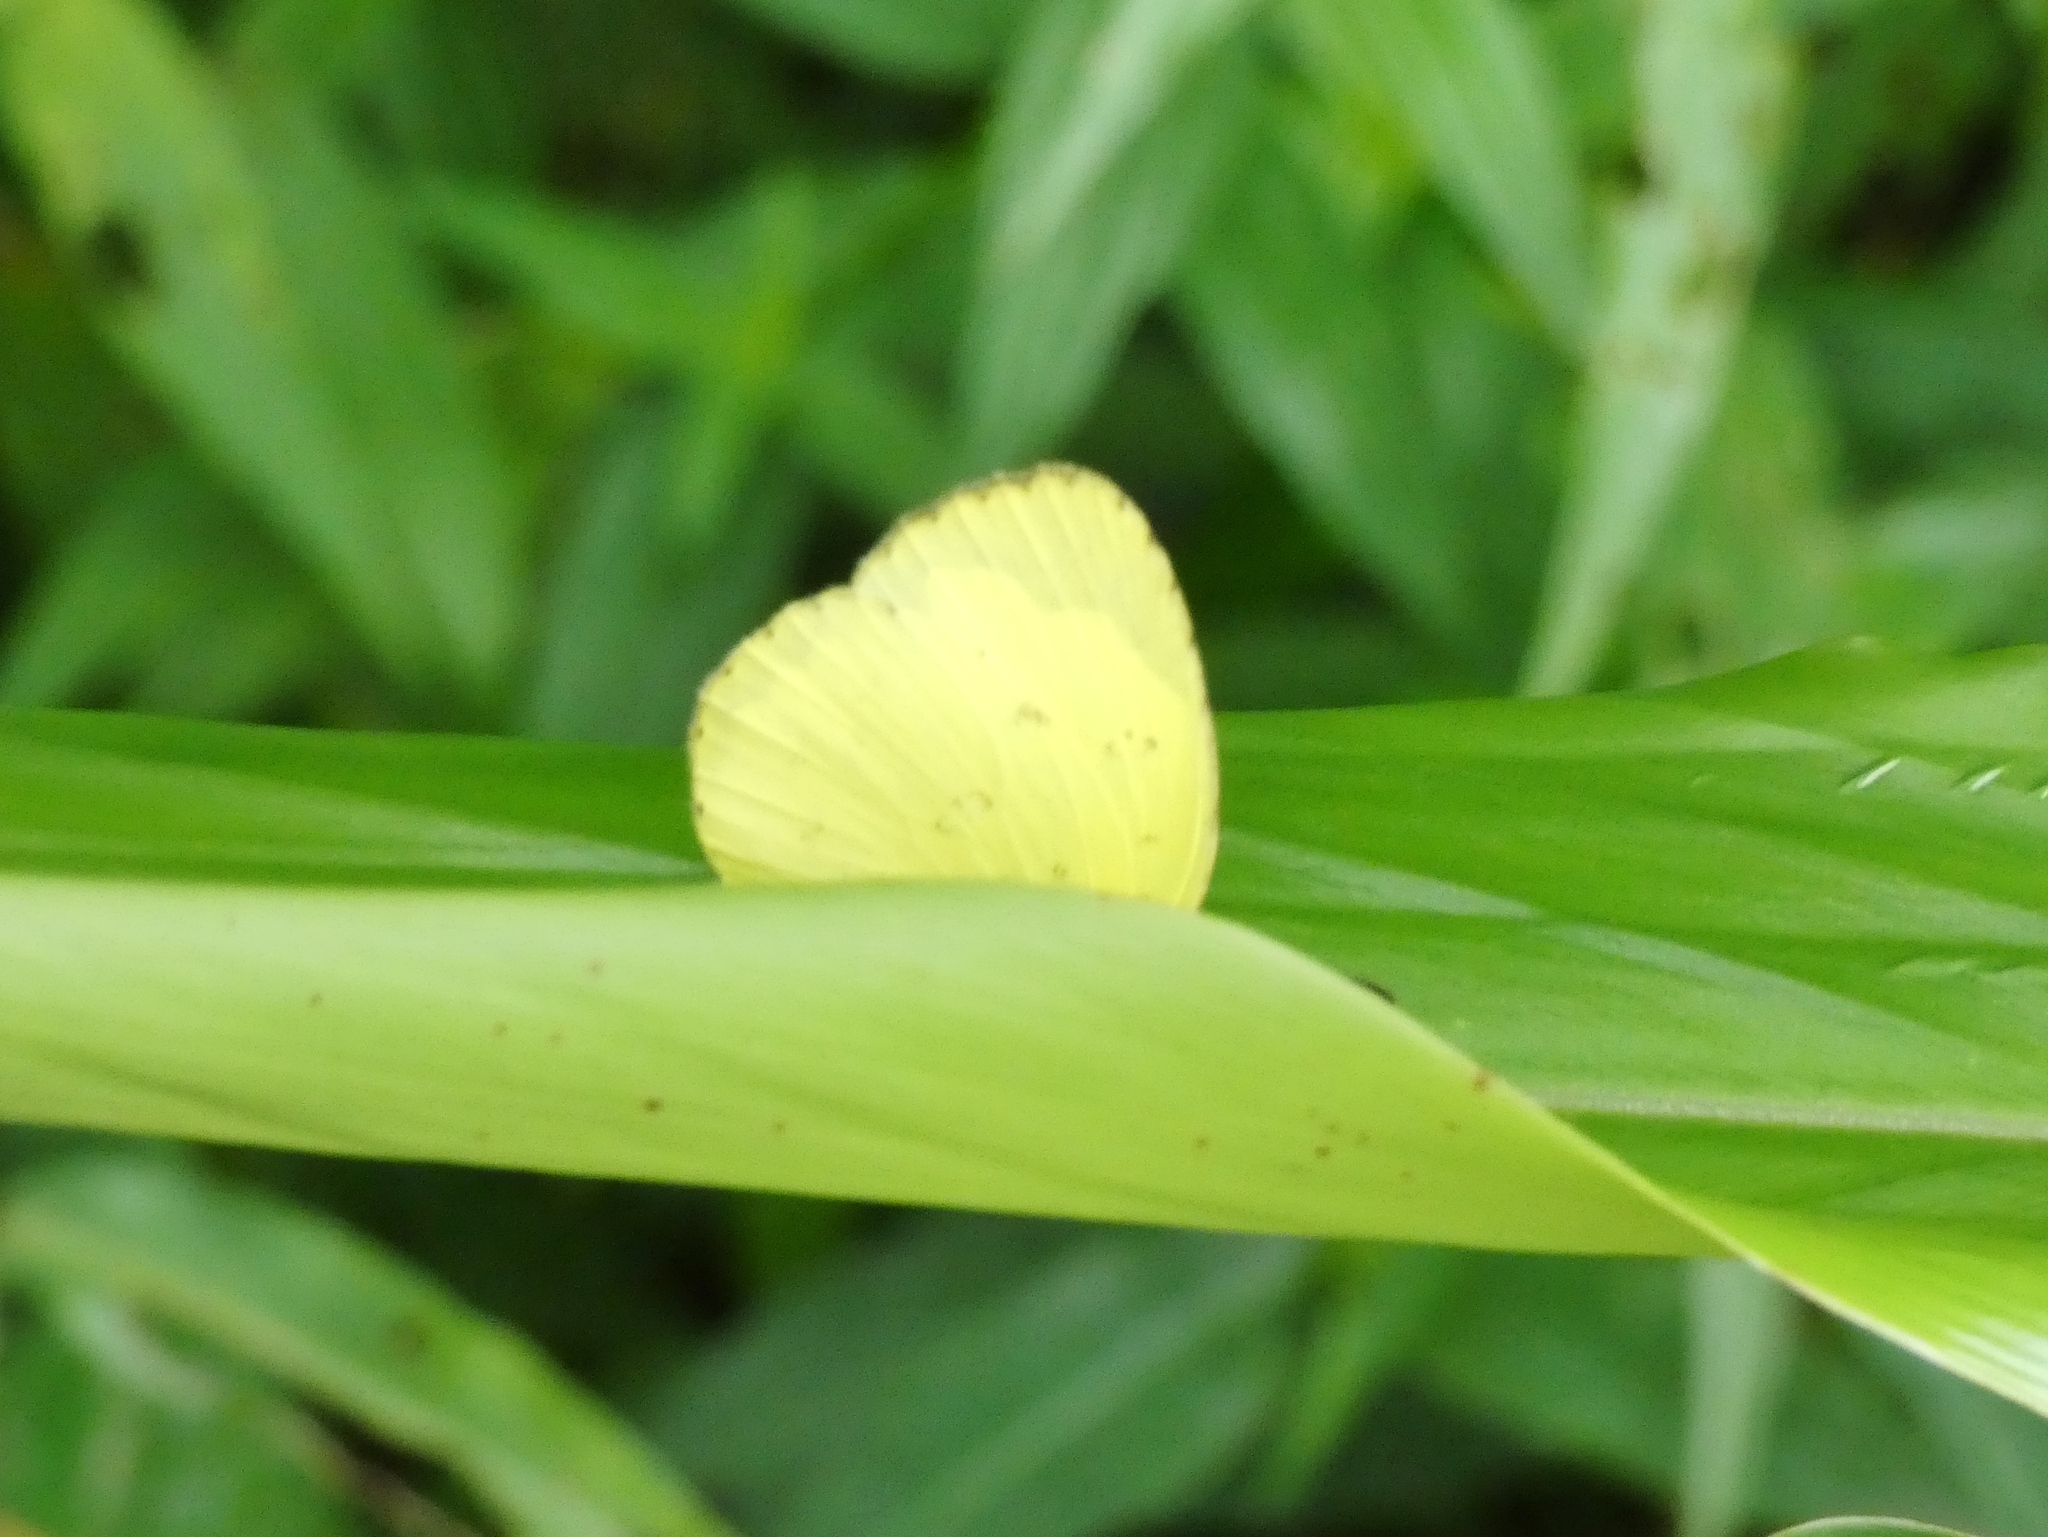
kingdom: Animalia
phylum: Arthropoda
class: Insecta
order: Lepidoptera
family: Pieridae
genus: Eurema
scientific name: Eurema senegalensis
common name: Forest grass yellow
